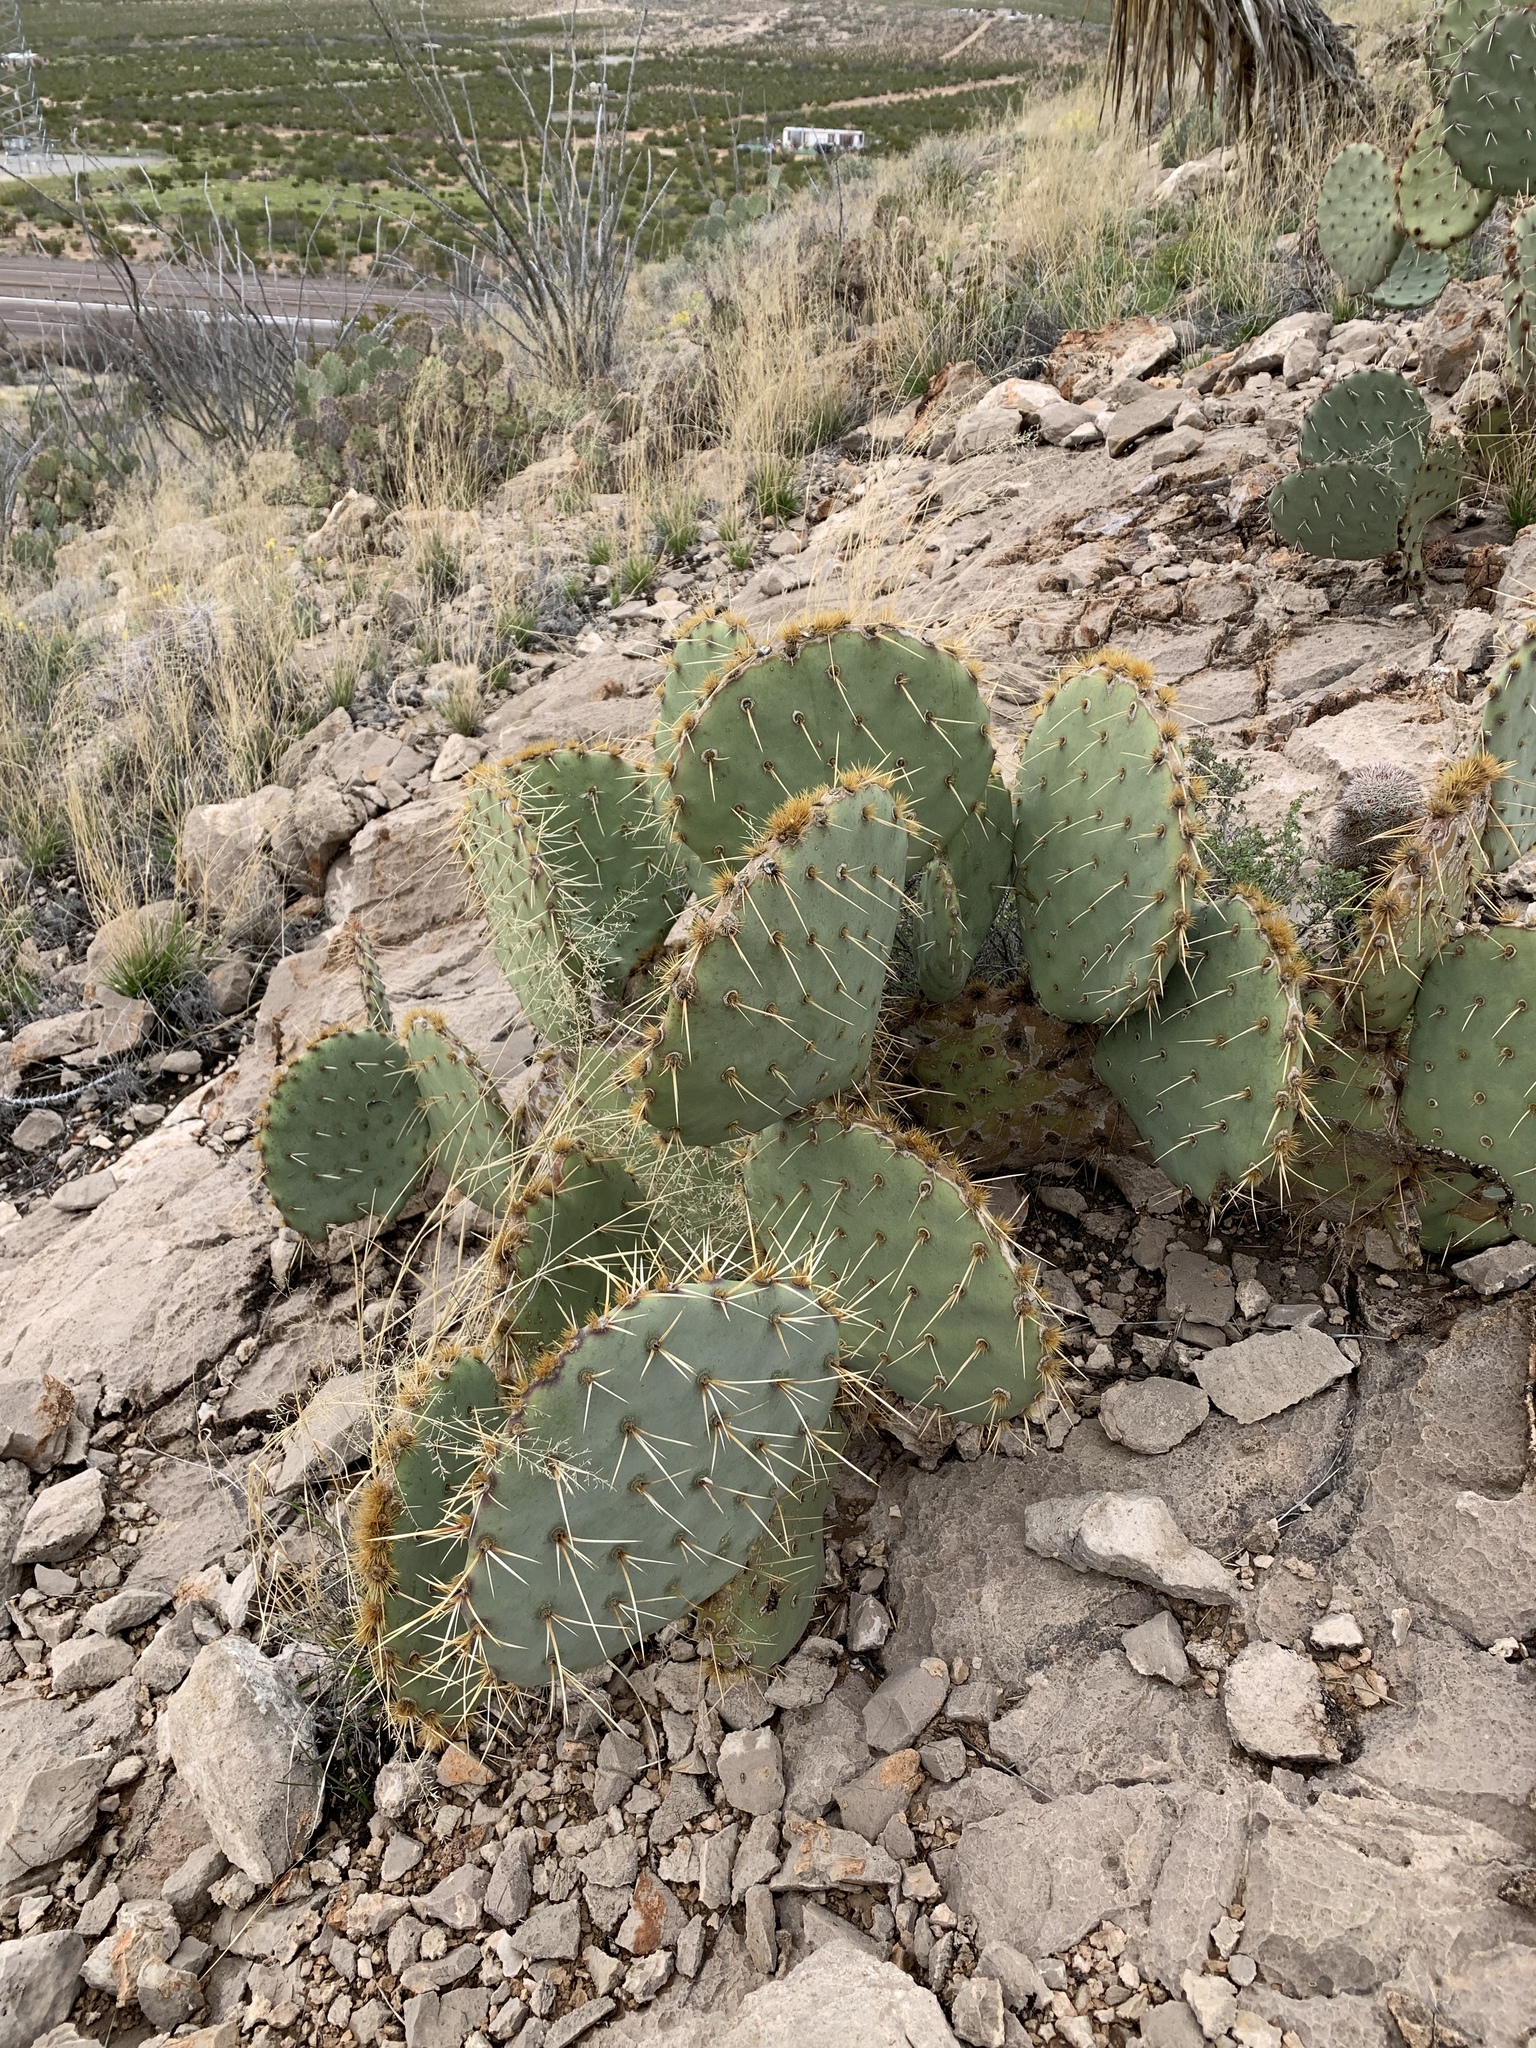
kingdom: Plantae
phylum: Tracheophyta
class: Magnoliopsida
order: Caryophyllales
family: Cactaceae
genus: Opuntia
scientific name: Opuntia engelmannii
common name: Cactus-apple
